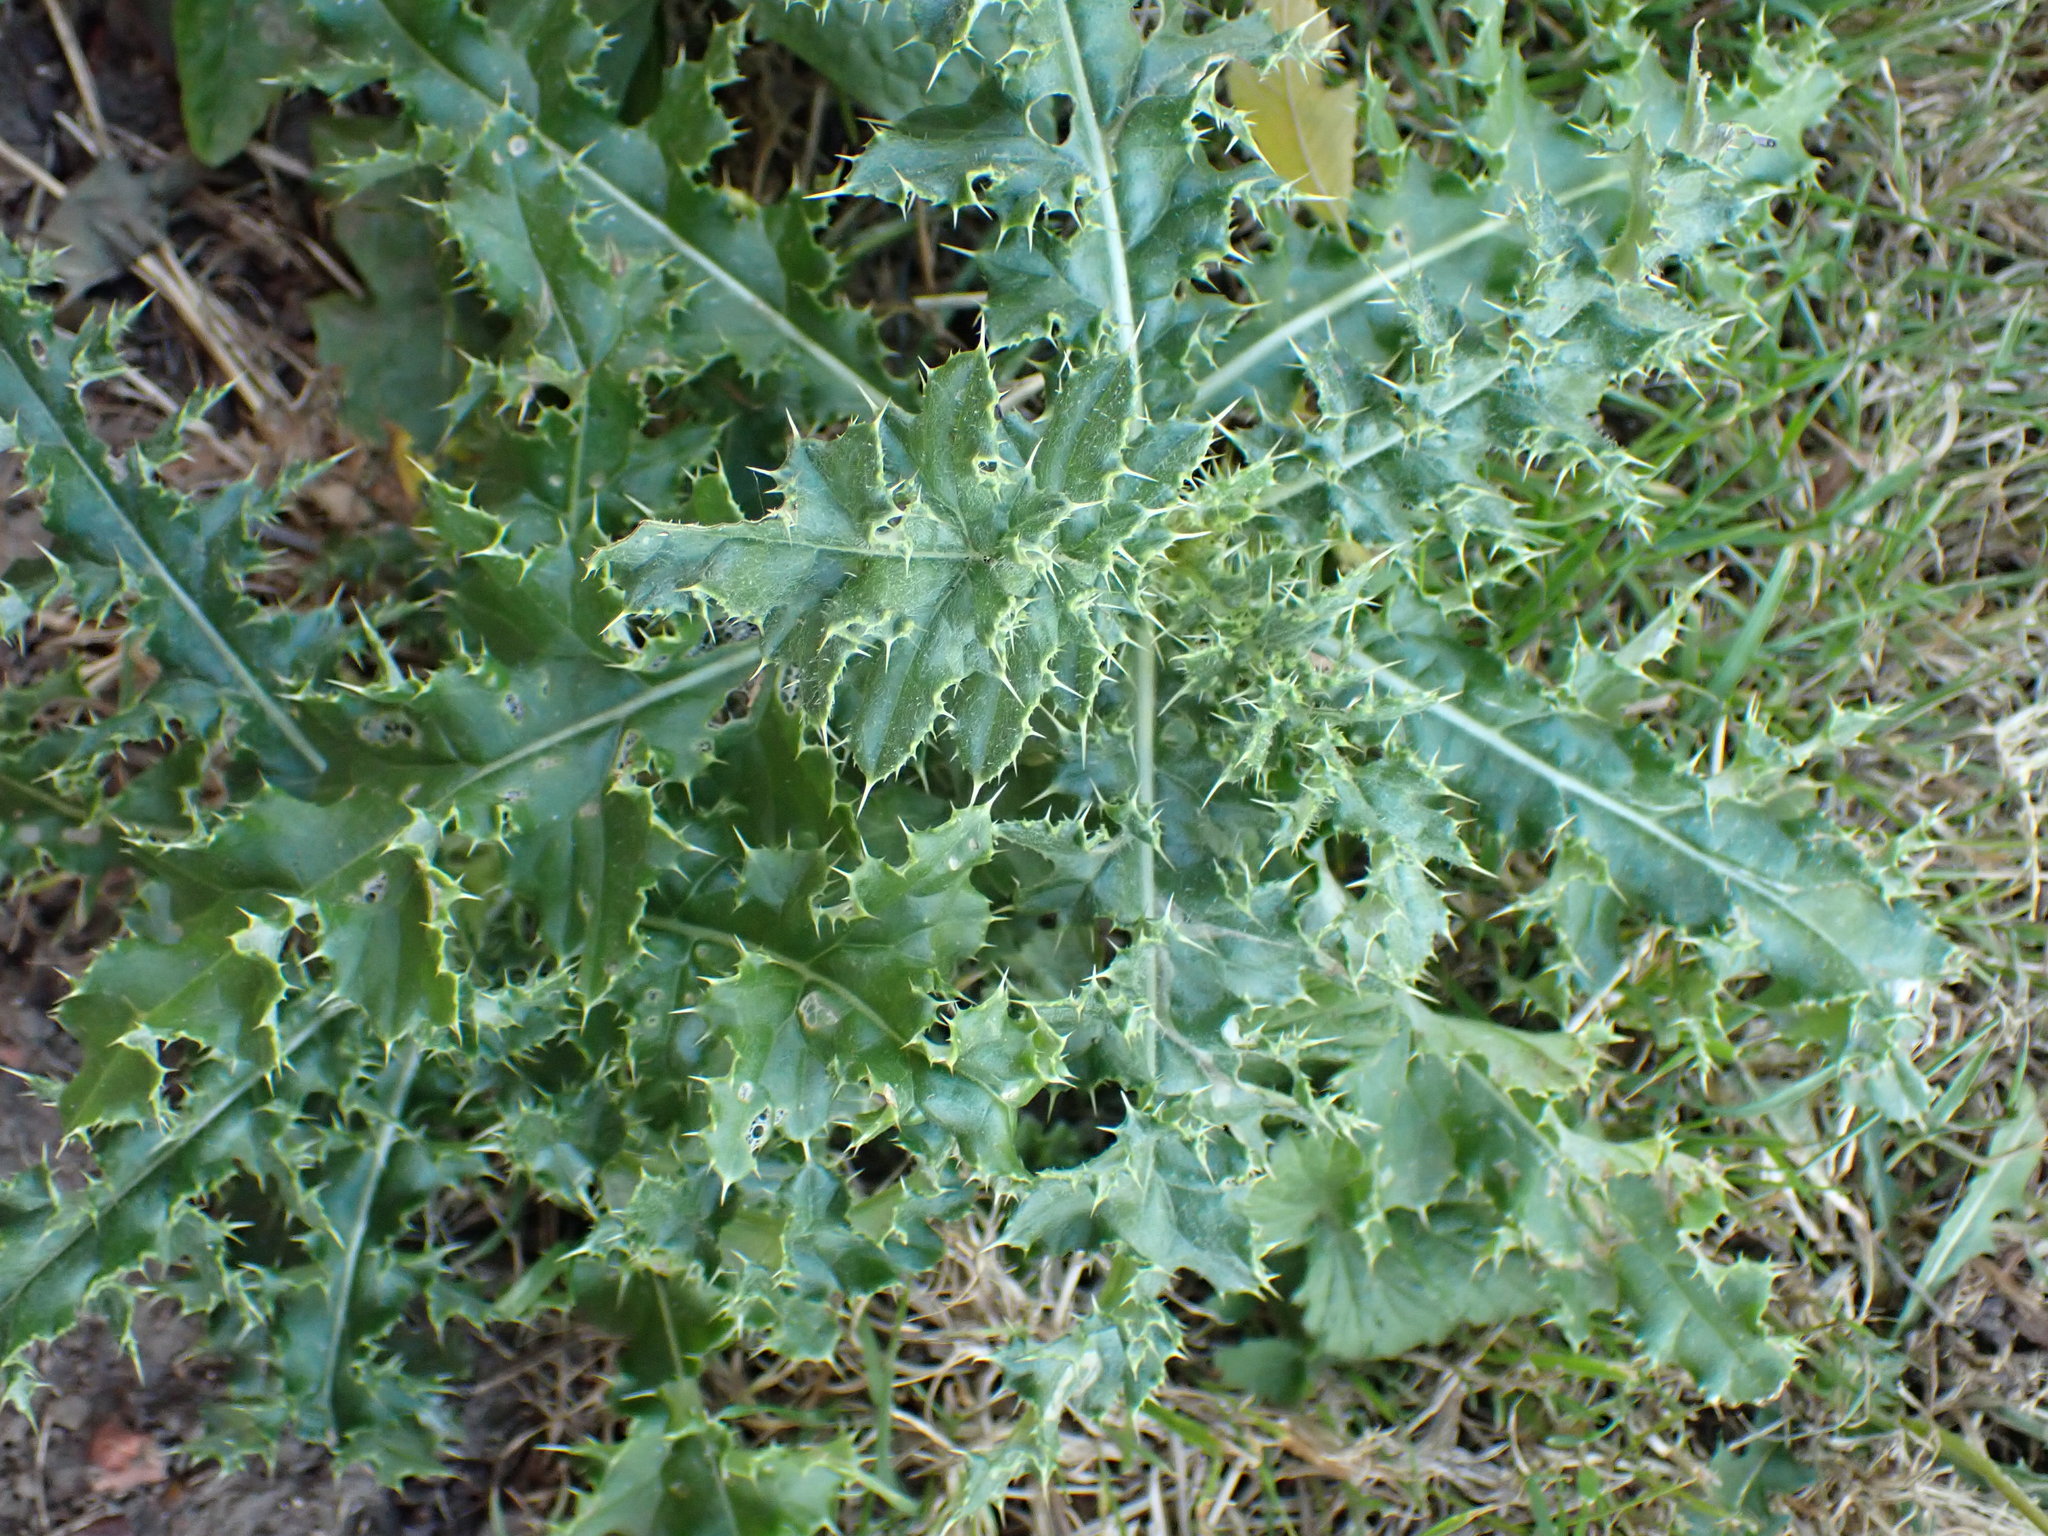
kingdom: Plantae
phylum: Tracheophyta
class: Magnoliopsida
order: Asterales
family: Asteraceae
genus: Cirsium
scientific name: Cirsium arvense
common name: Creeping thistle
